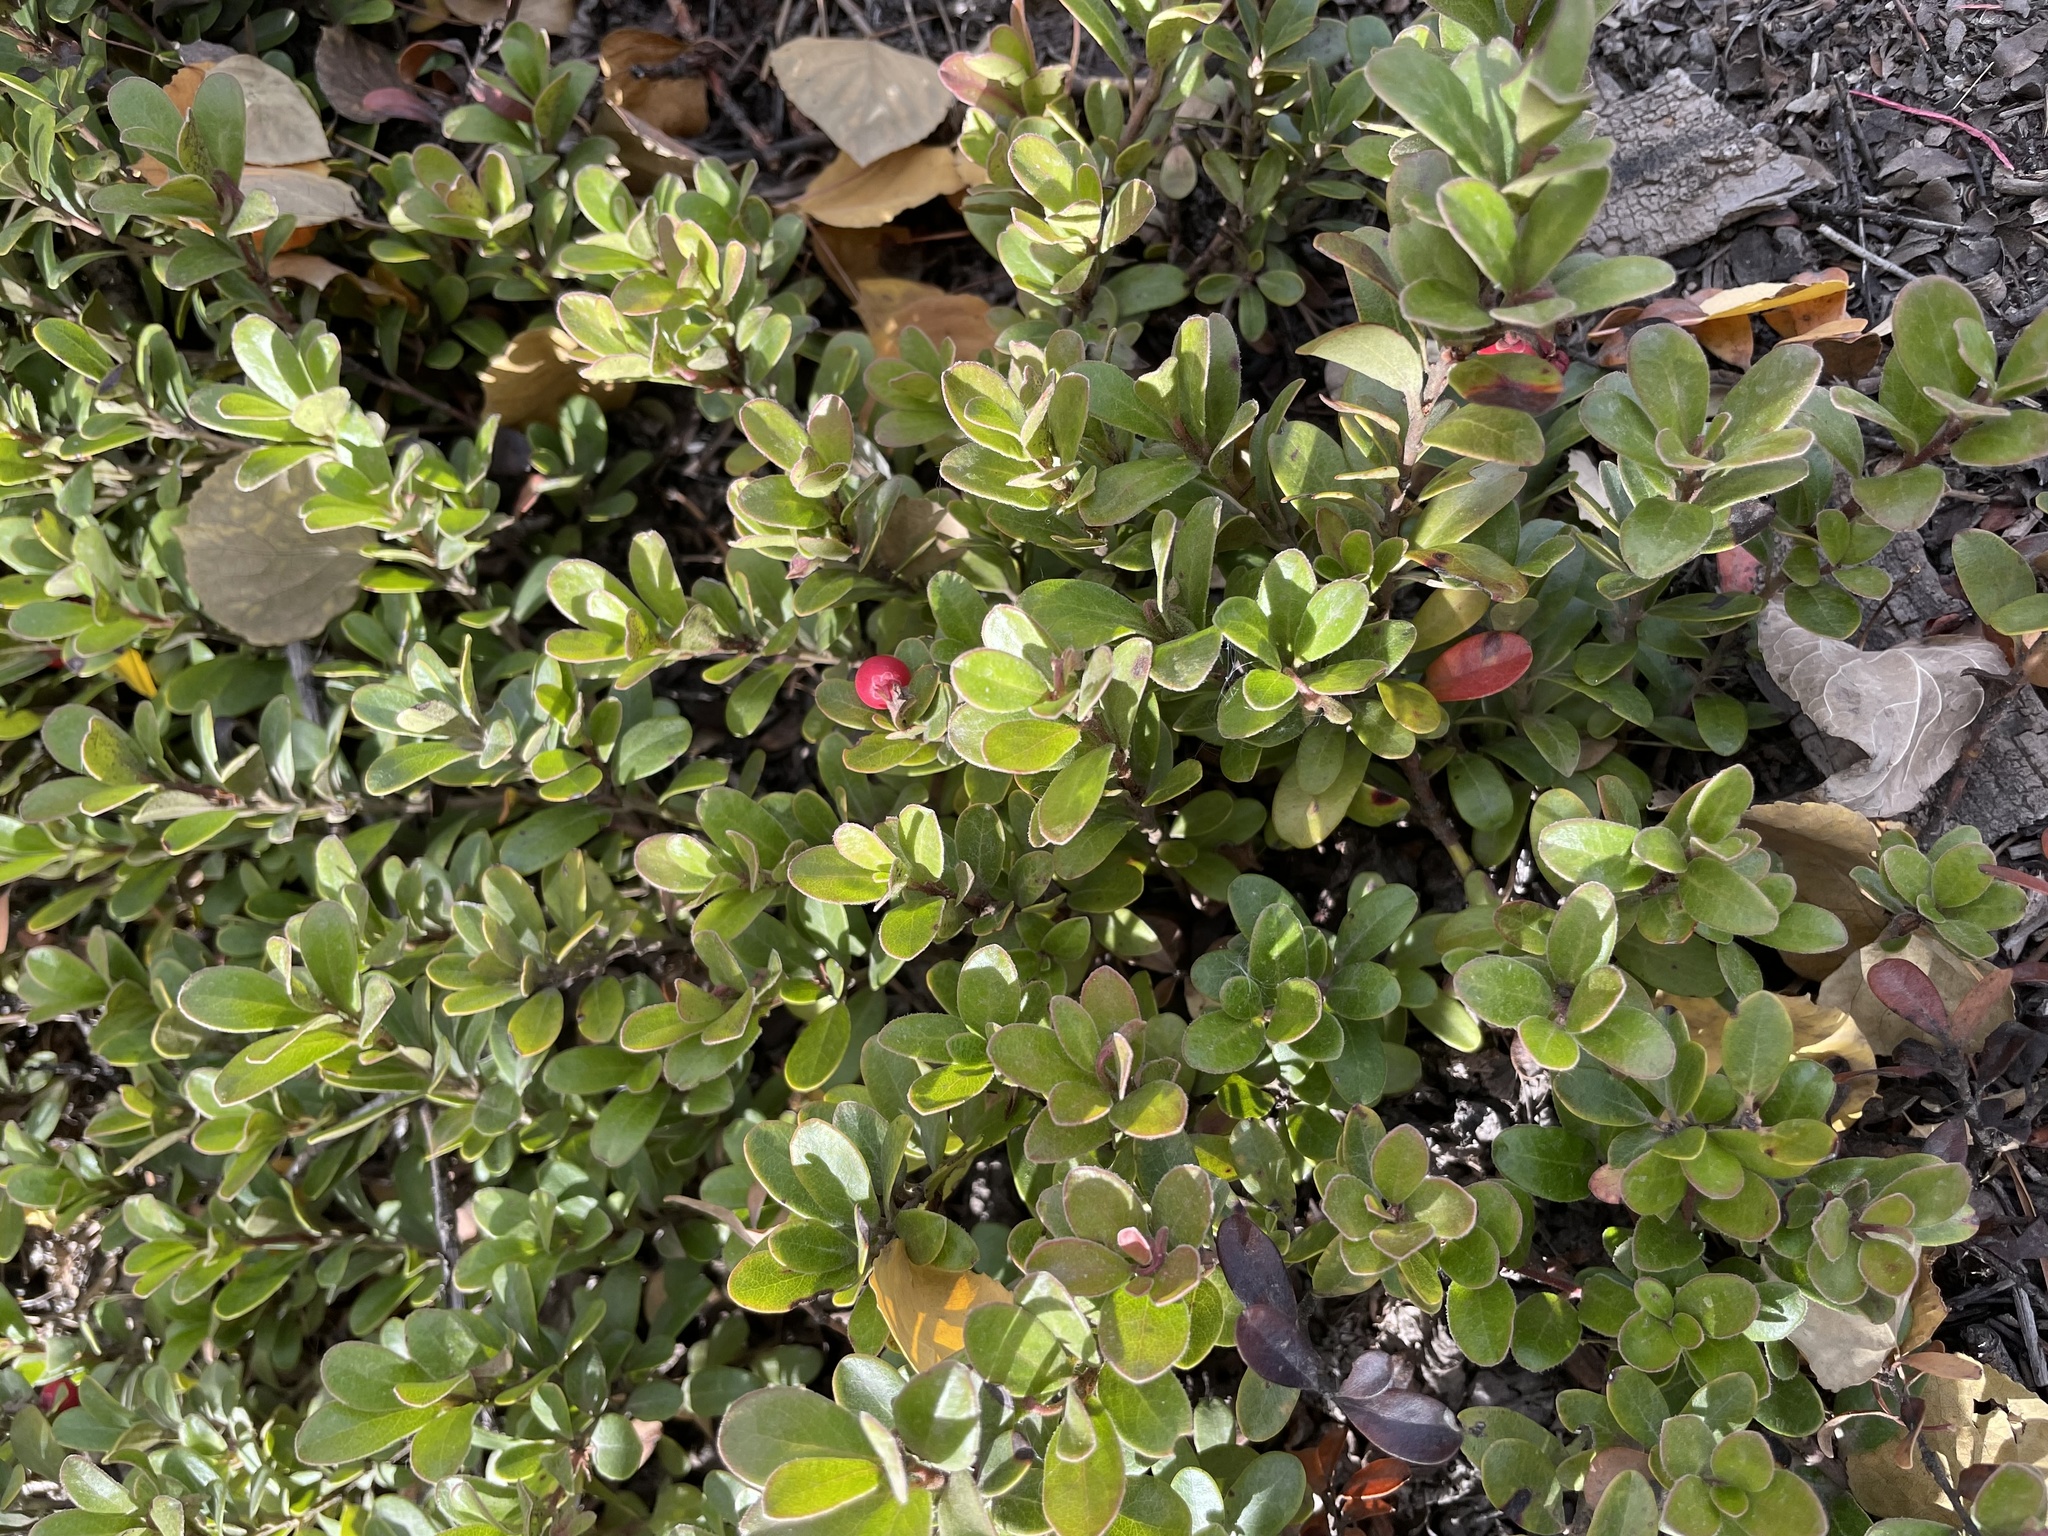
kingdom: Plantae
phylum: Tracheophyta
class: Magnoliopsida
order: Ericales
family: Ericaceae
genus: Arctostaphylos
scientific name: Arctostaphylos uva-ursi
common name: Bearberry
